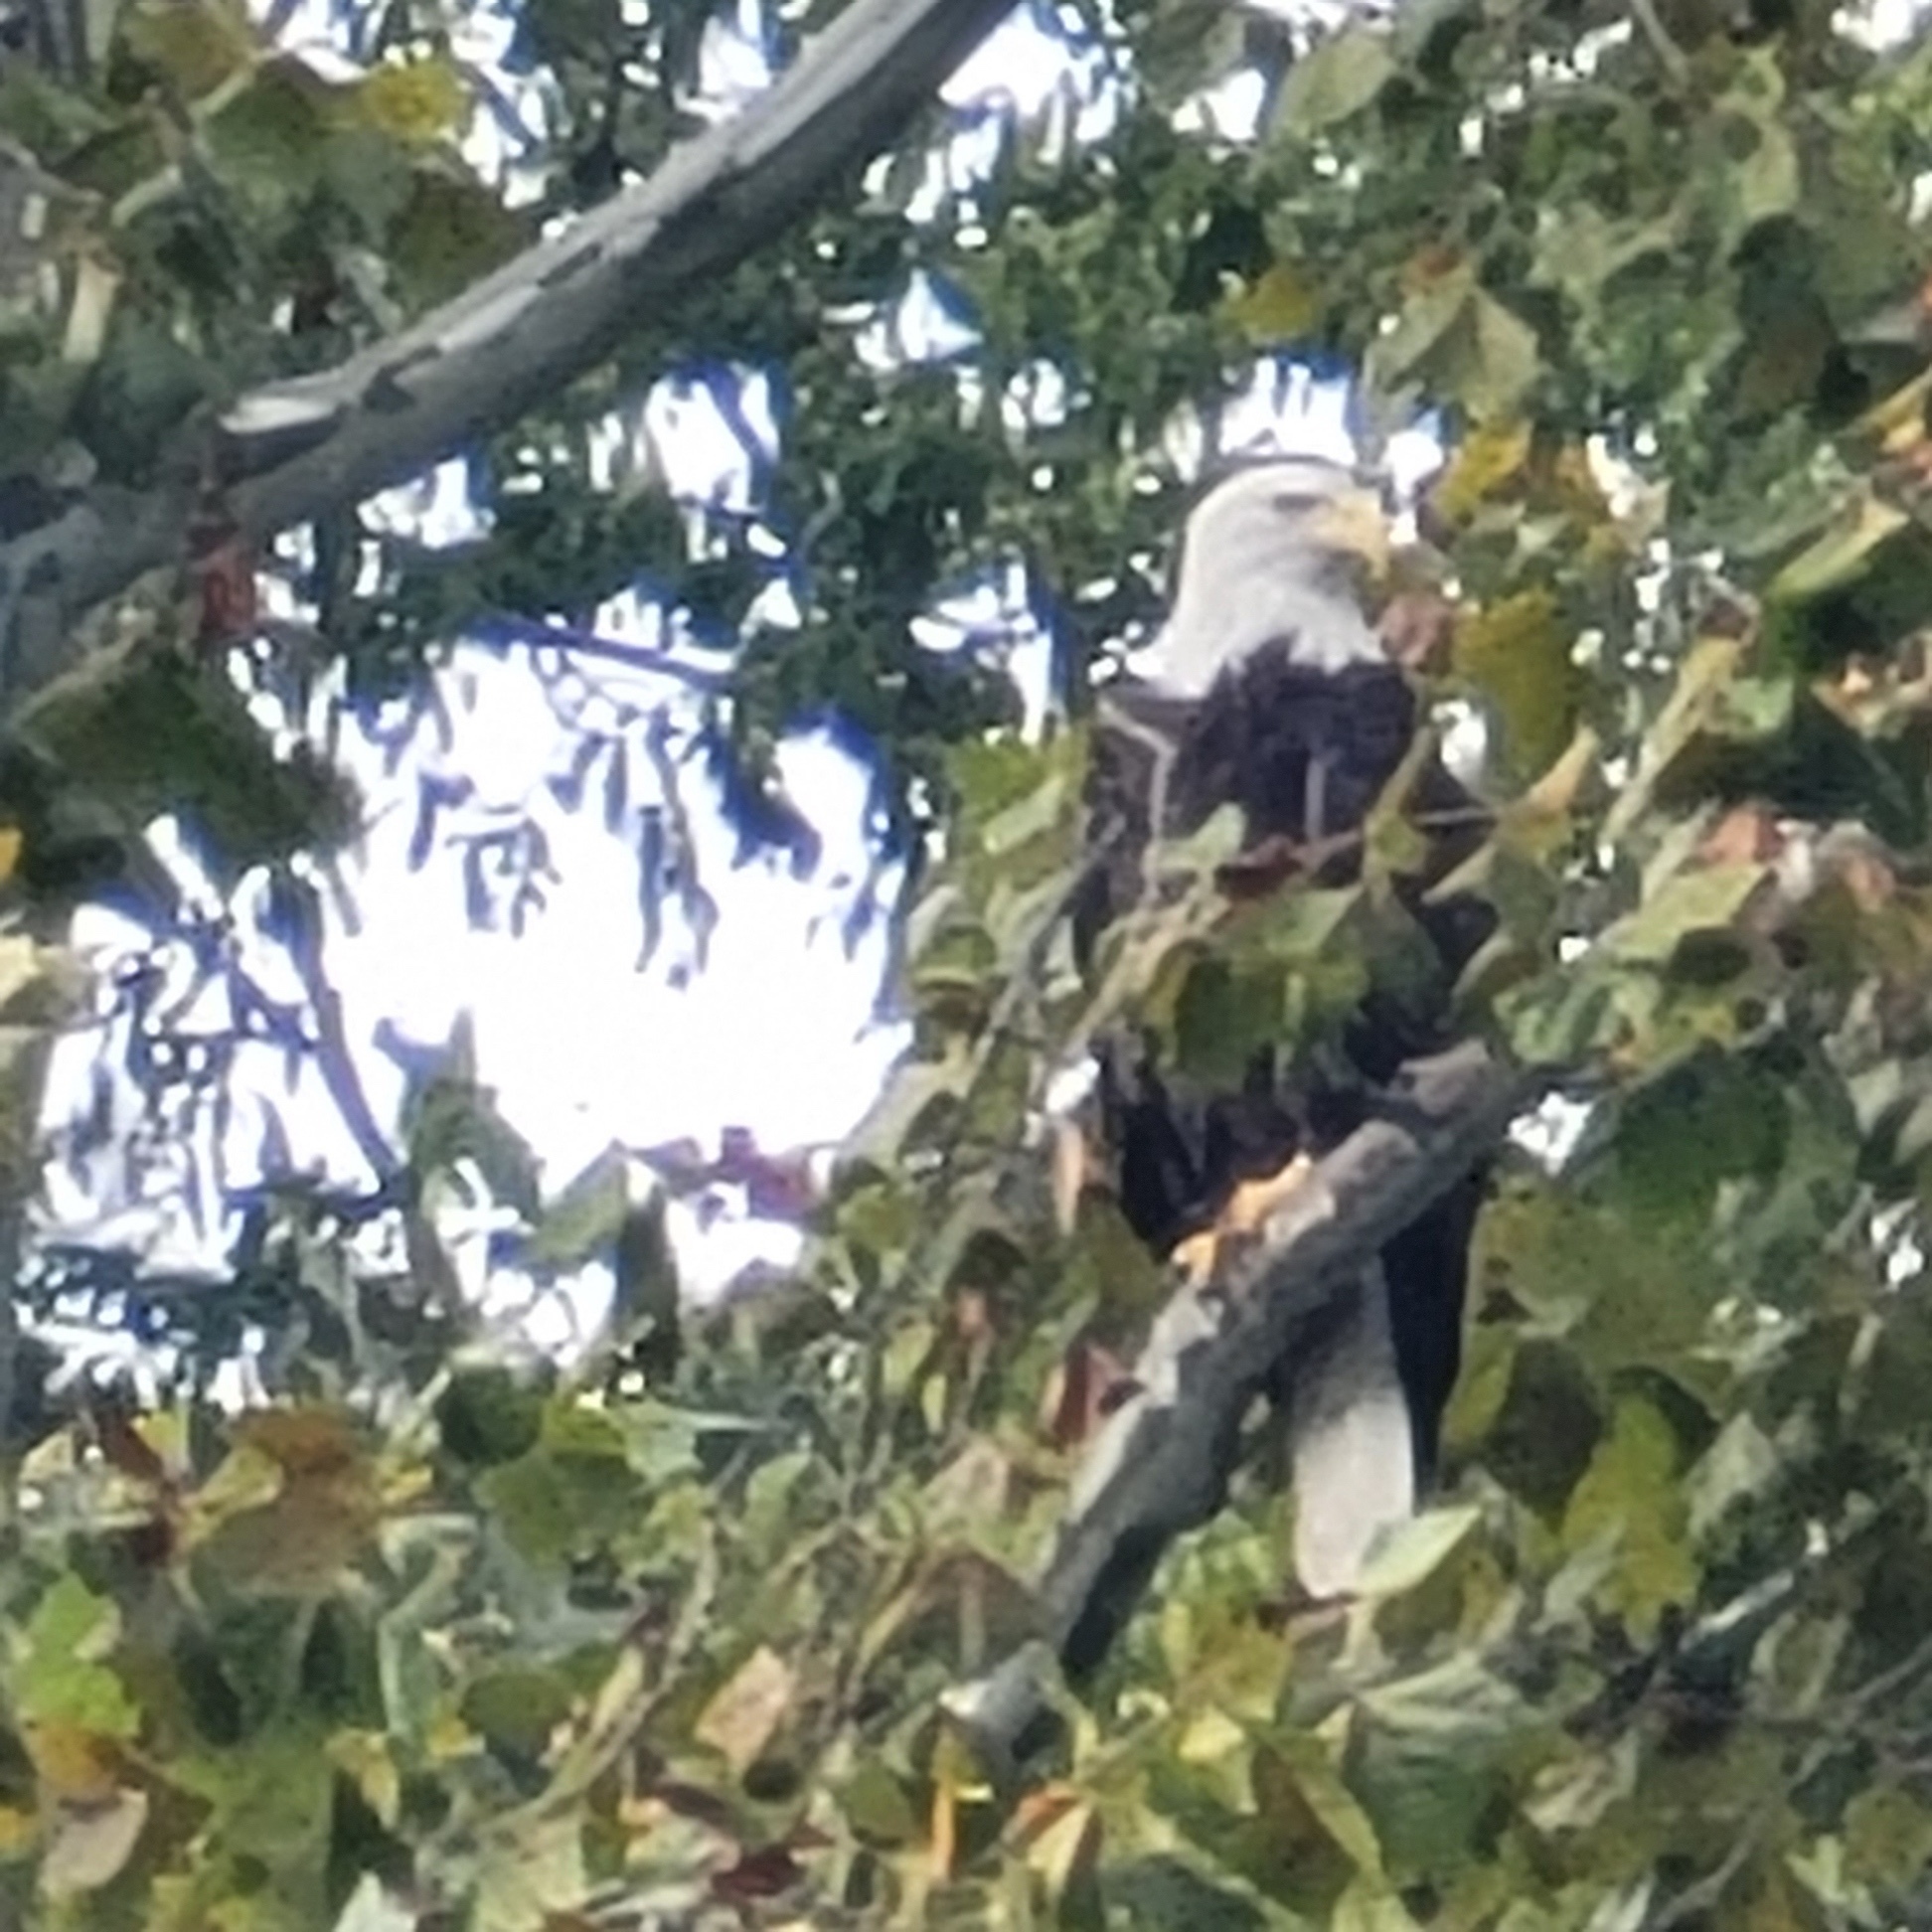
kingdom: Animalia
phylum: Chordata
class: Aves
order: Accipitriformes
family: Accipitridae
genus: Haliaeetus
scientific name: Haliaeetus leucocephalus
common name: Bald eagle
